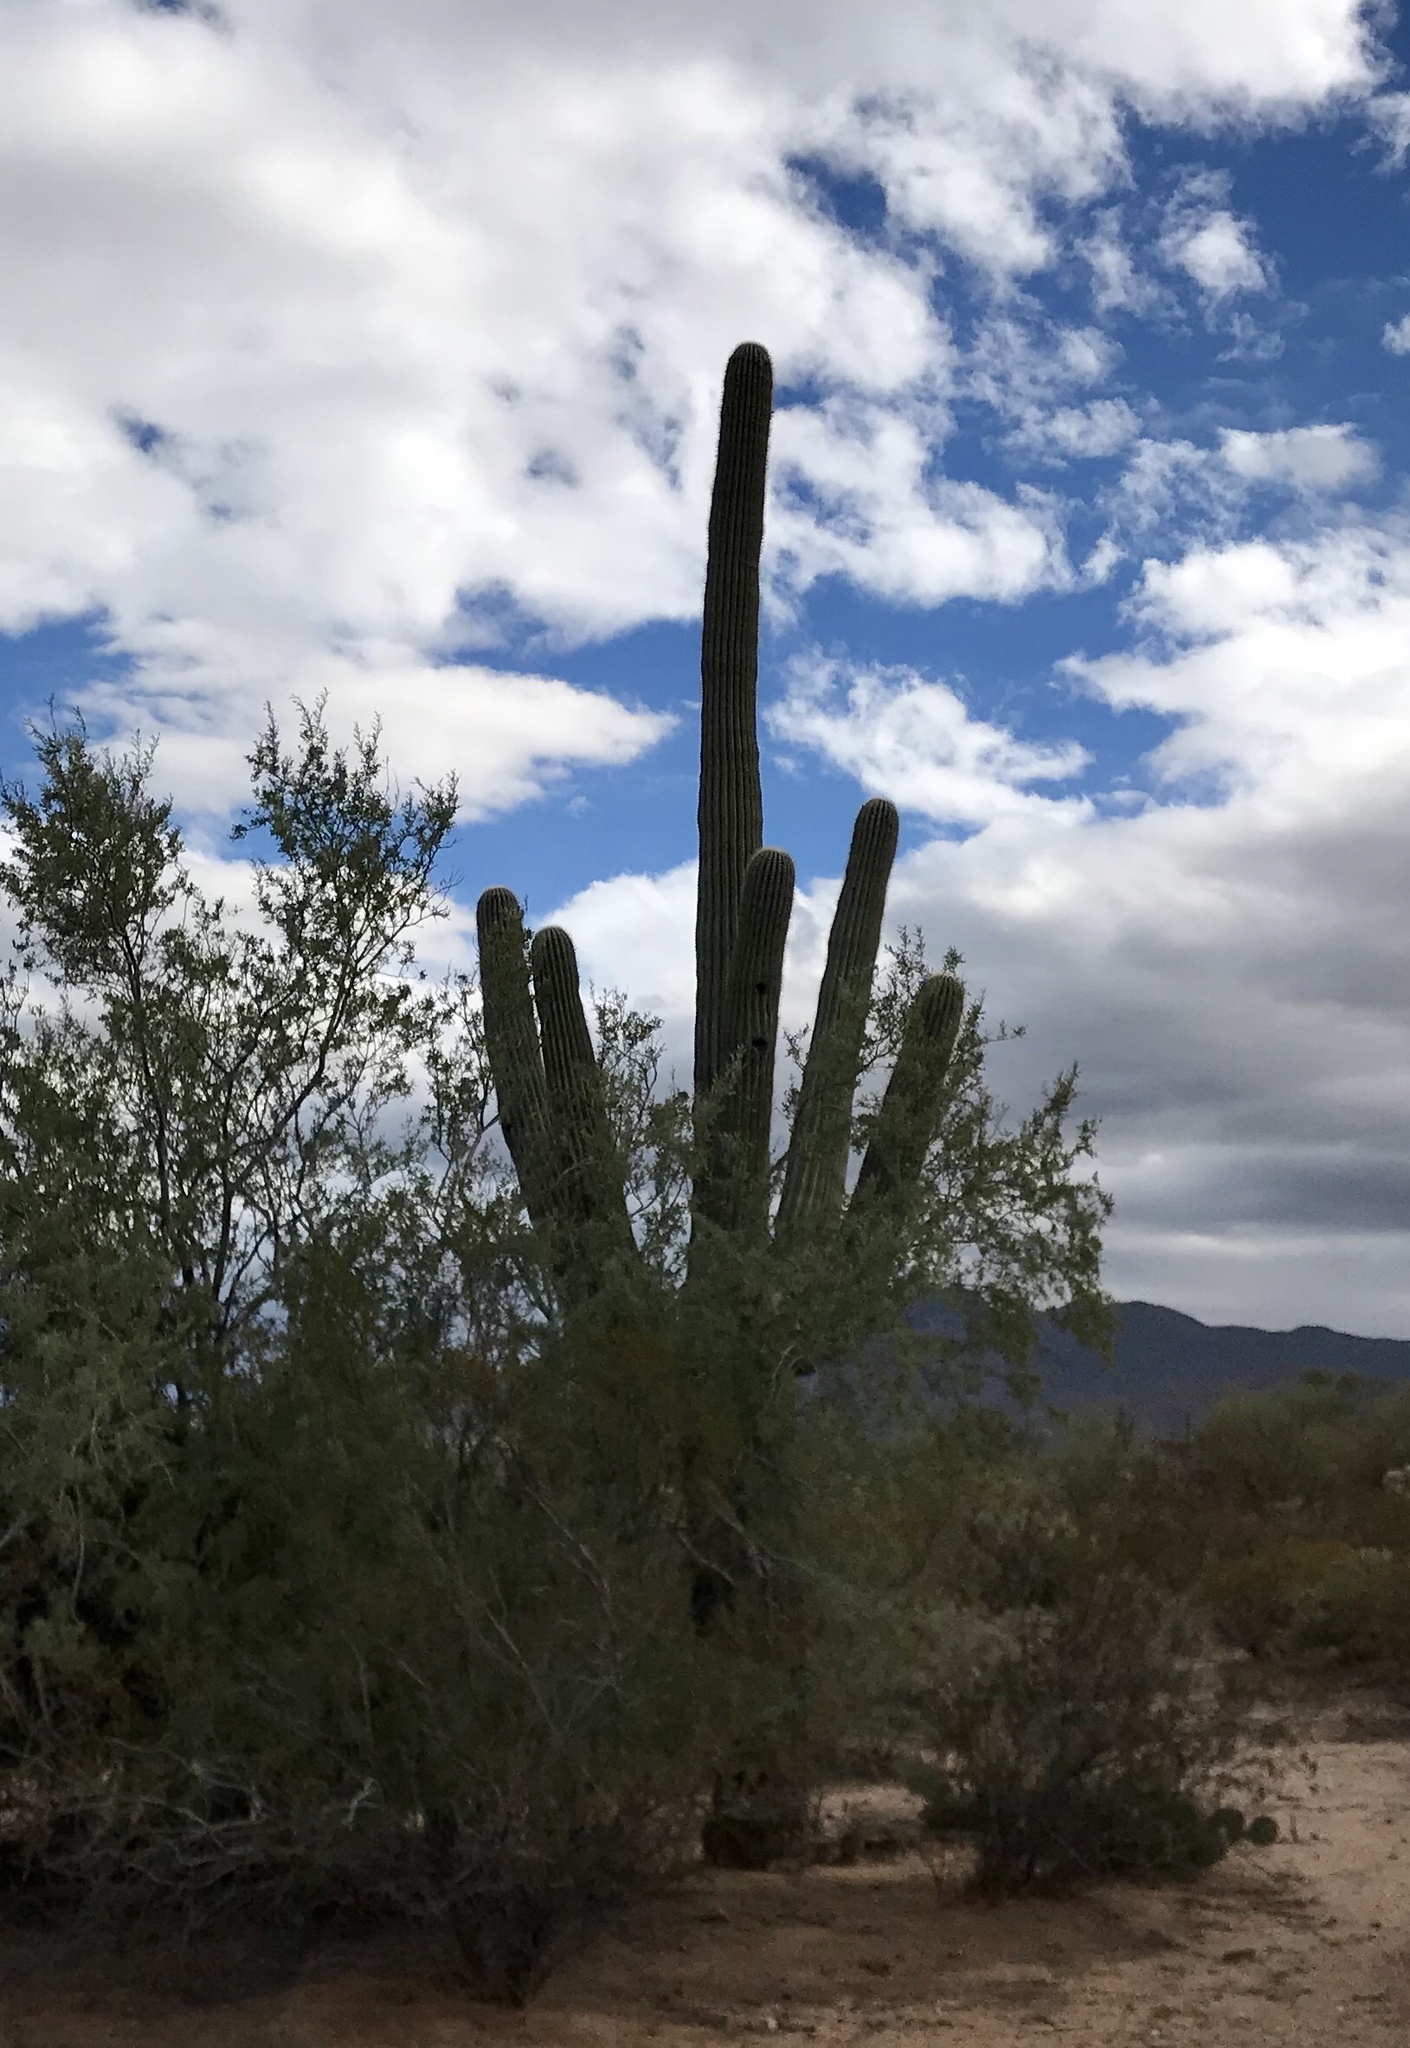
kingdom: Plantae
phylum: Tracheophyta
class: Magnoliopsida
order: Caryophyllales
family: Cactaceae
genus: Carnegiea
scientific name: Carnegiea gigantea
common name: Saguaro
